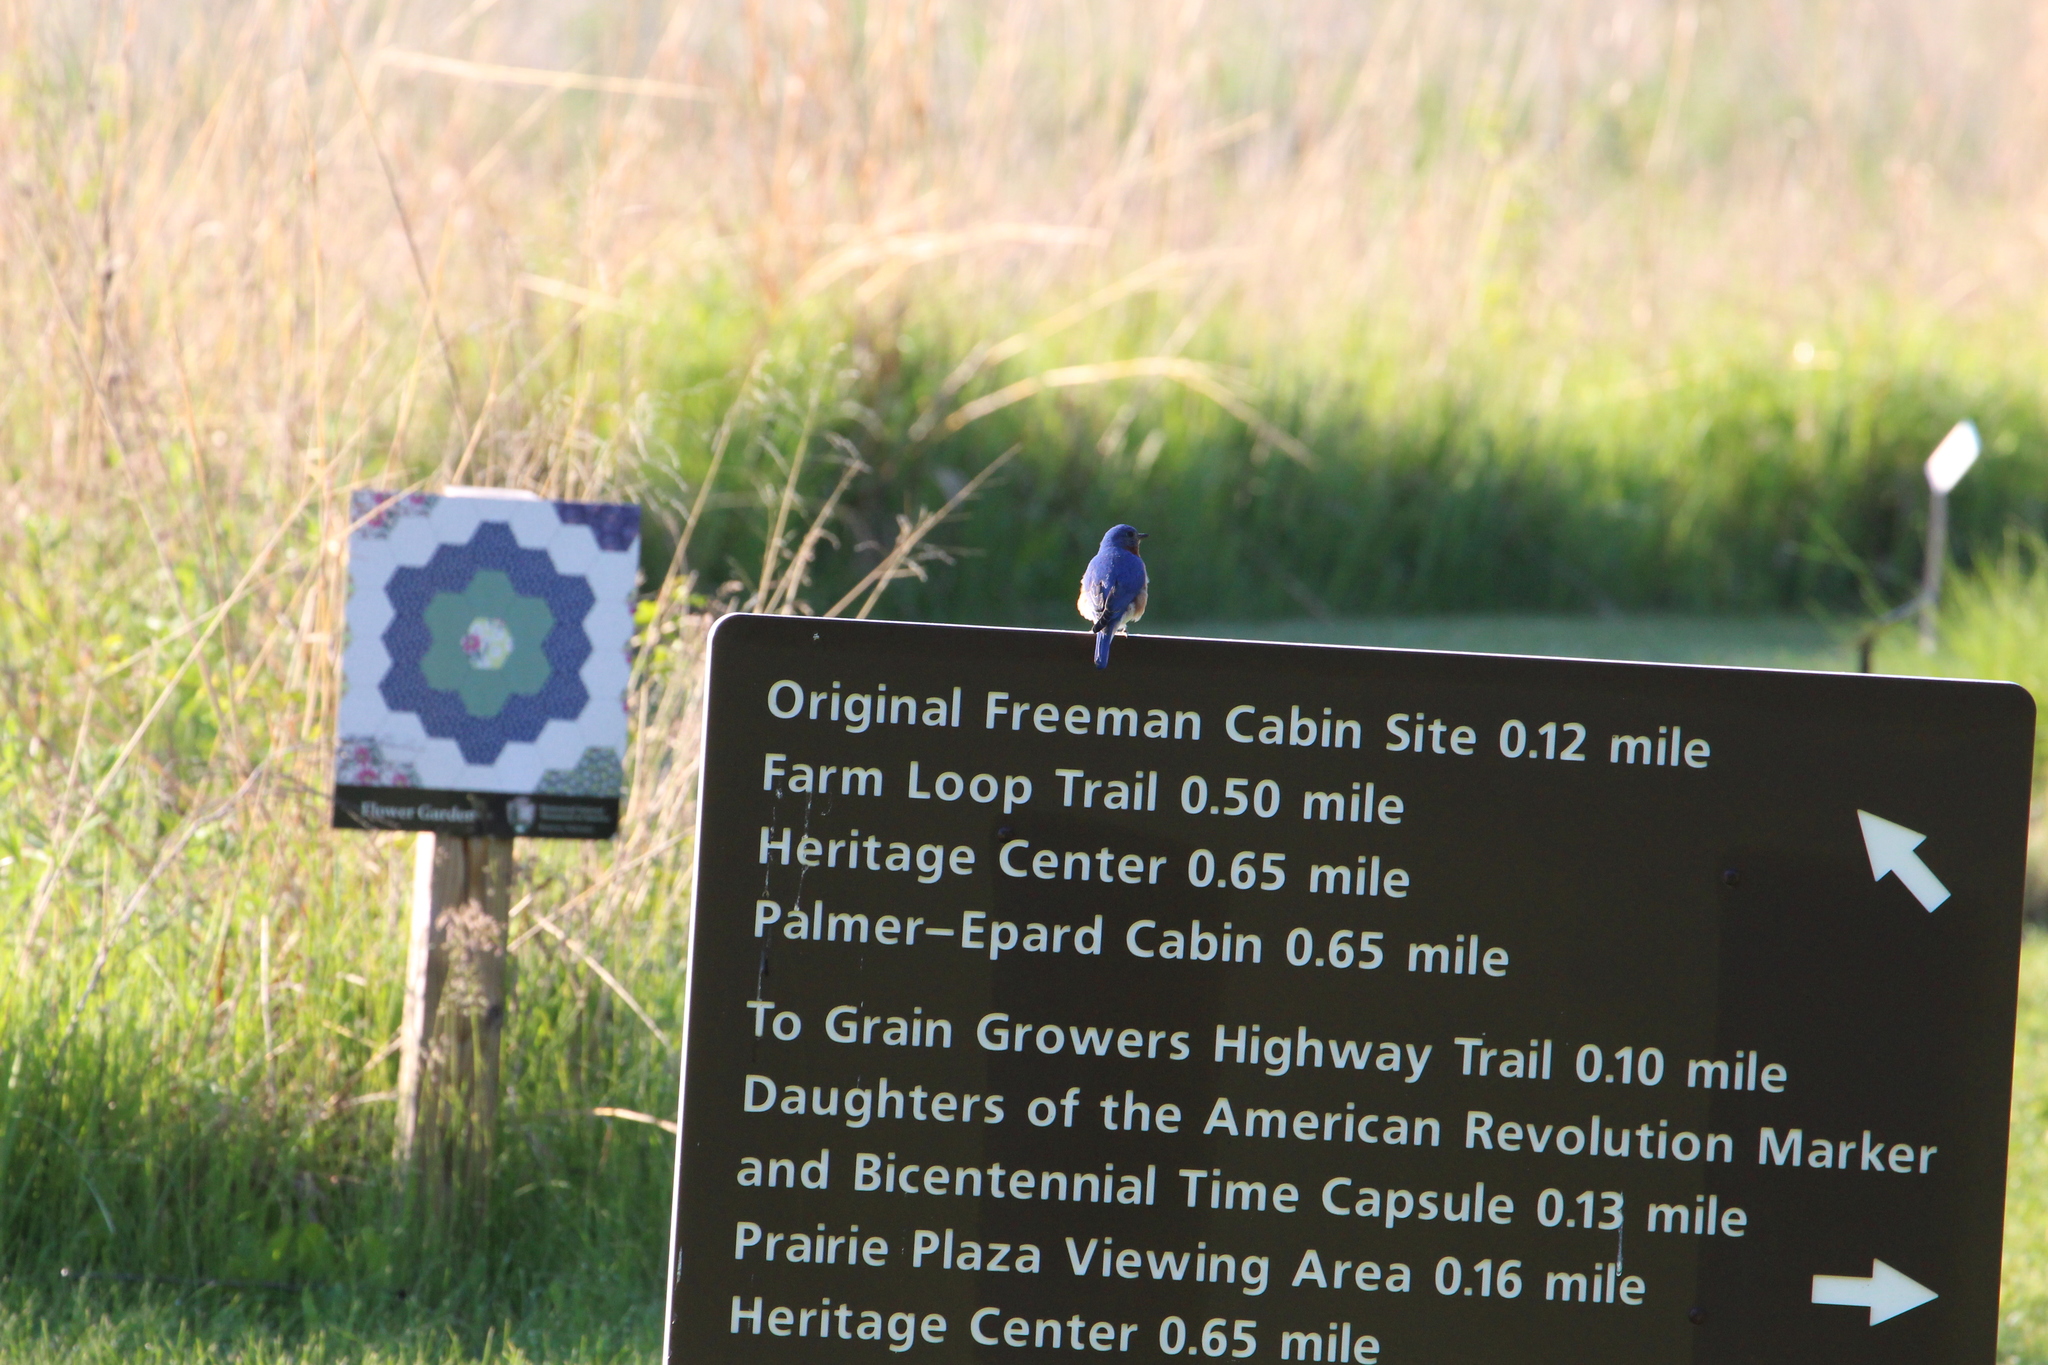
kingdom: Animalia
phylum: Chordata
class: Aves
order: Passeriformes
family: Turdidae
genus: Sialia
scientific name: Sialia sialis
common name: Eastern bluebird
